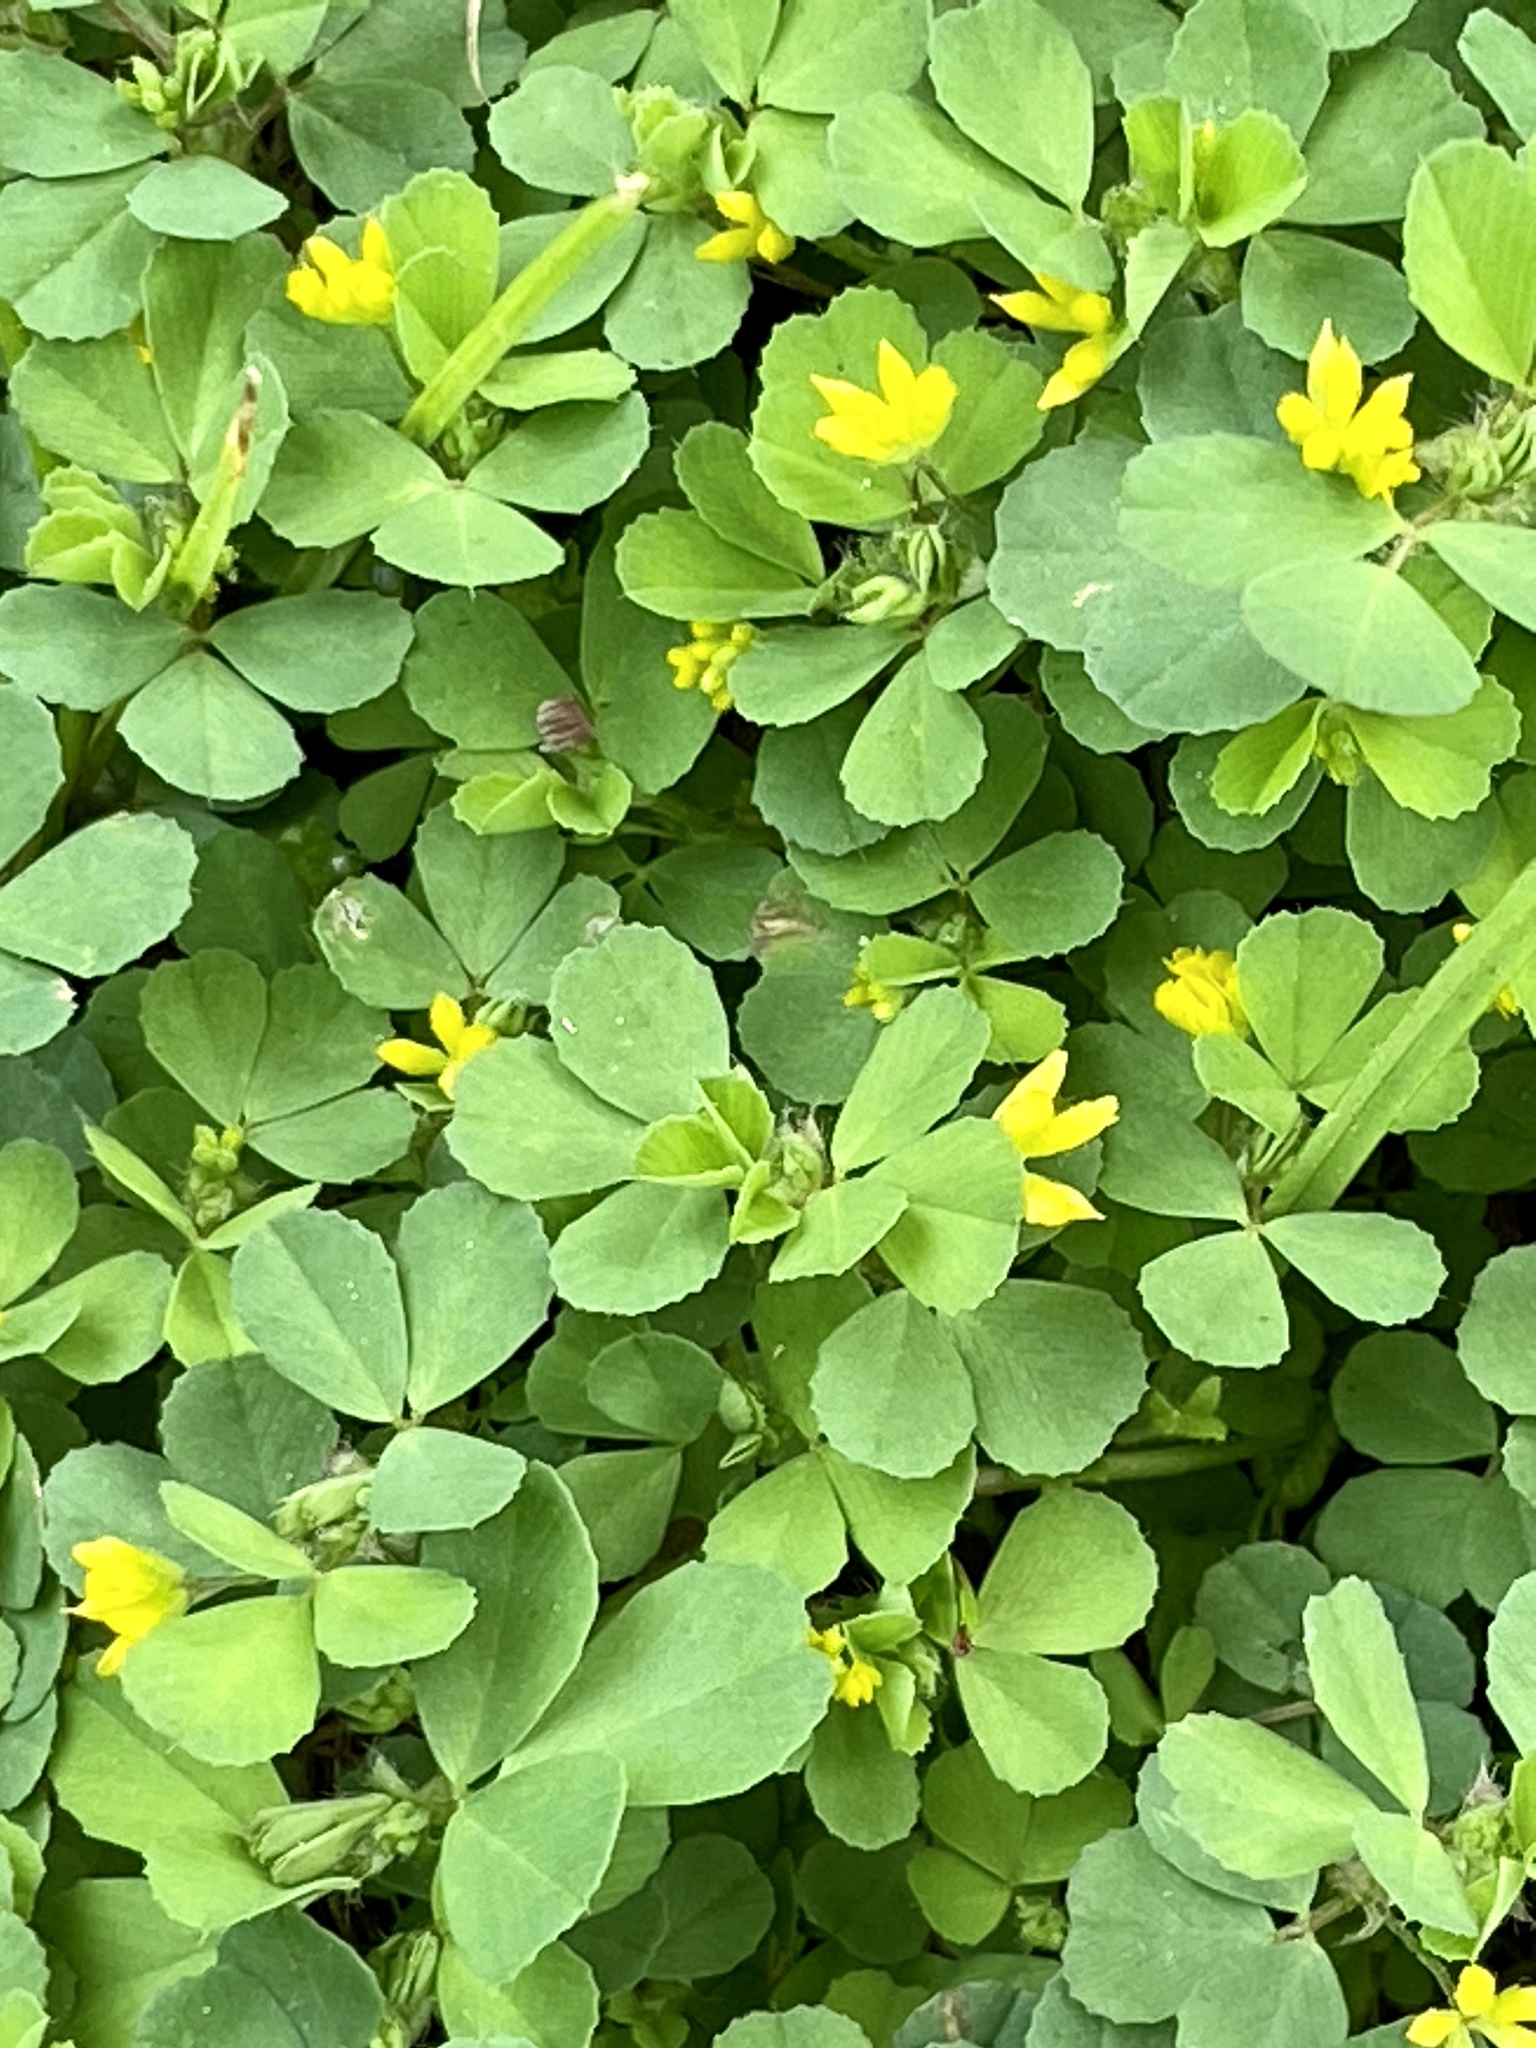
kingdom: Plantae
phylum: Tracheophyta
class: Magnoliopsida
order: Fabales
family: Fabaceae
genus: Trifolium
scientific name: Trifolium dubium
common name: Suckling clover
